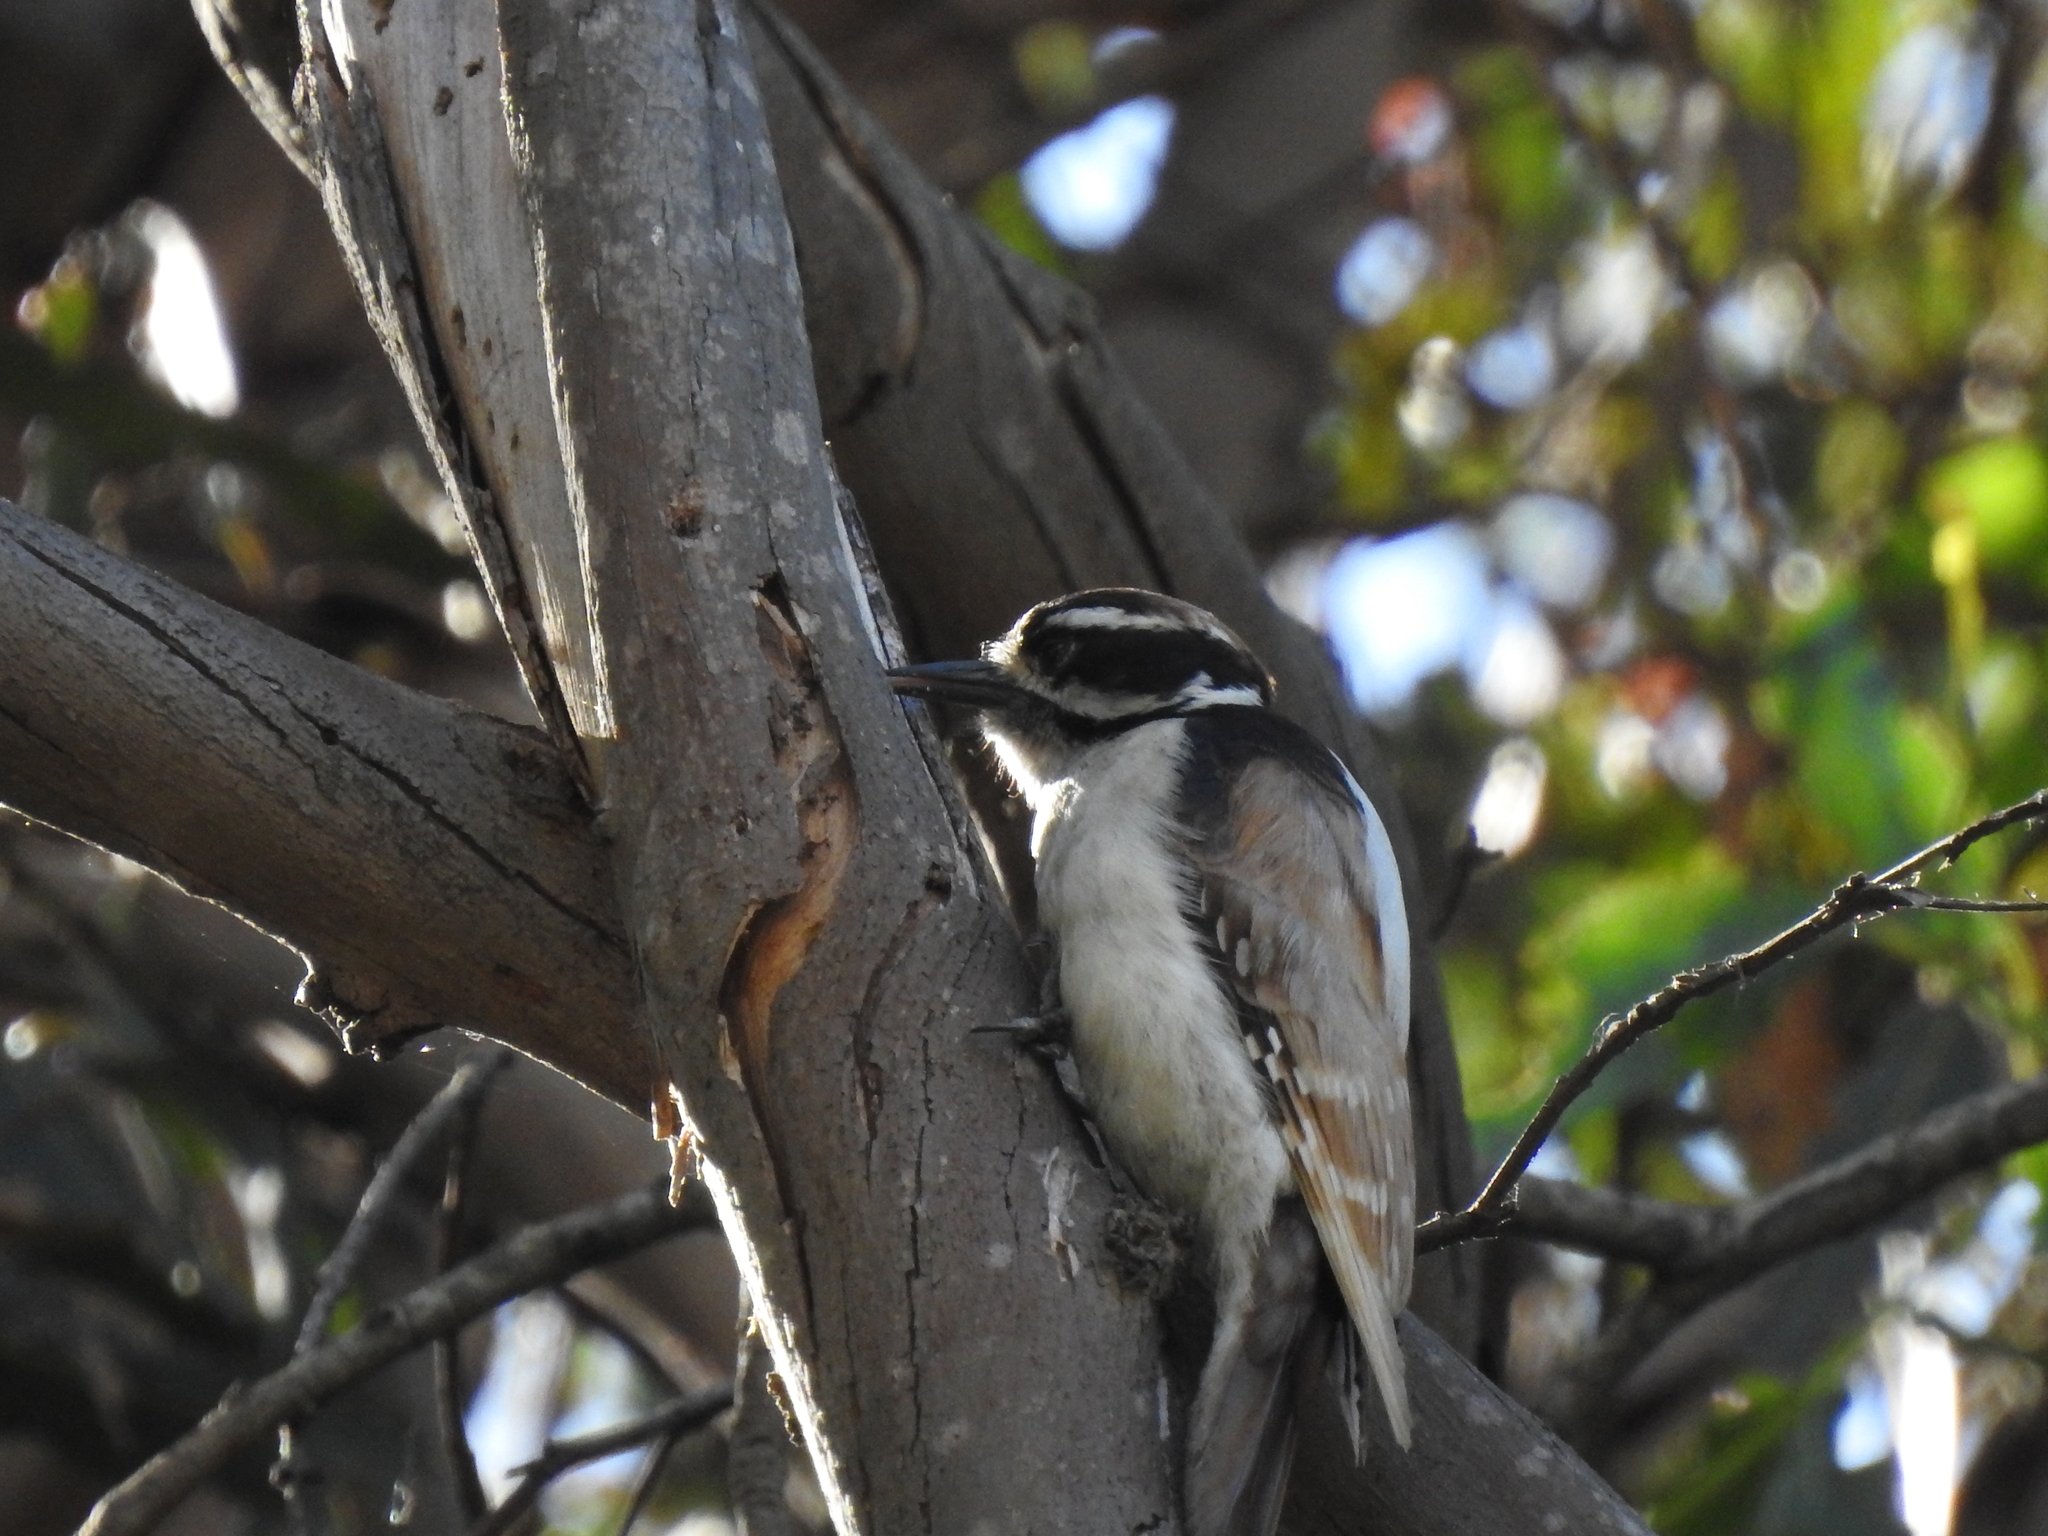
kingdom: Animalia
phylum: Chordata
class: Aves
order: Piciformes
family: Picidae
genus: Dryobates
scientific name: Dryobates pubescens
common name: Downy woodpecker
